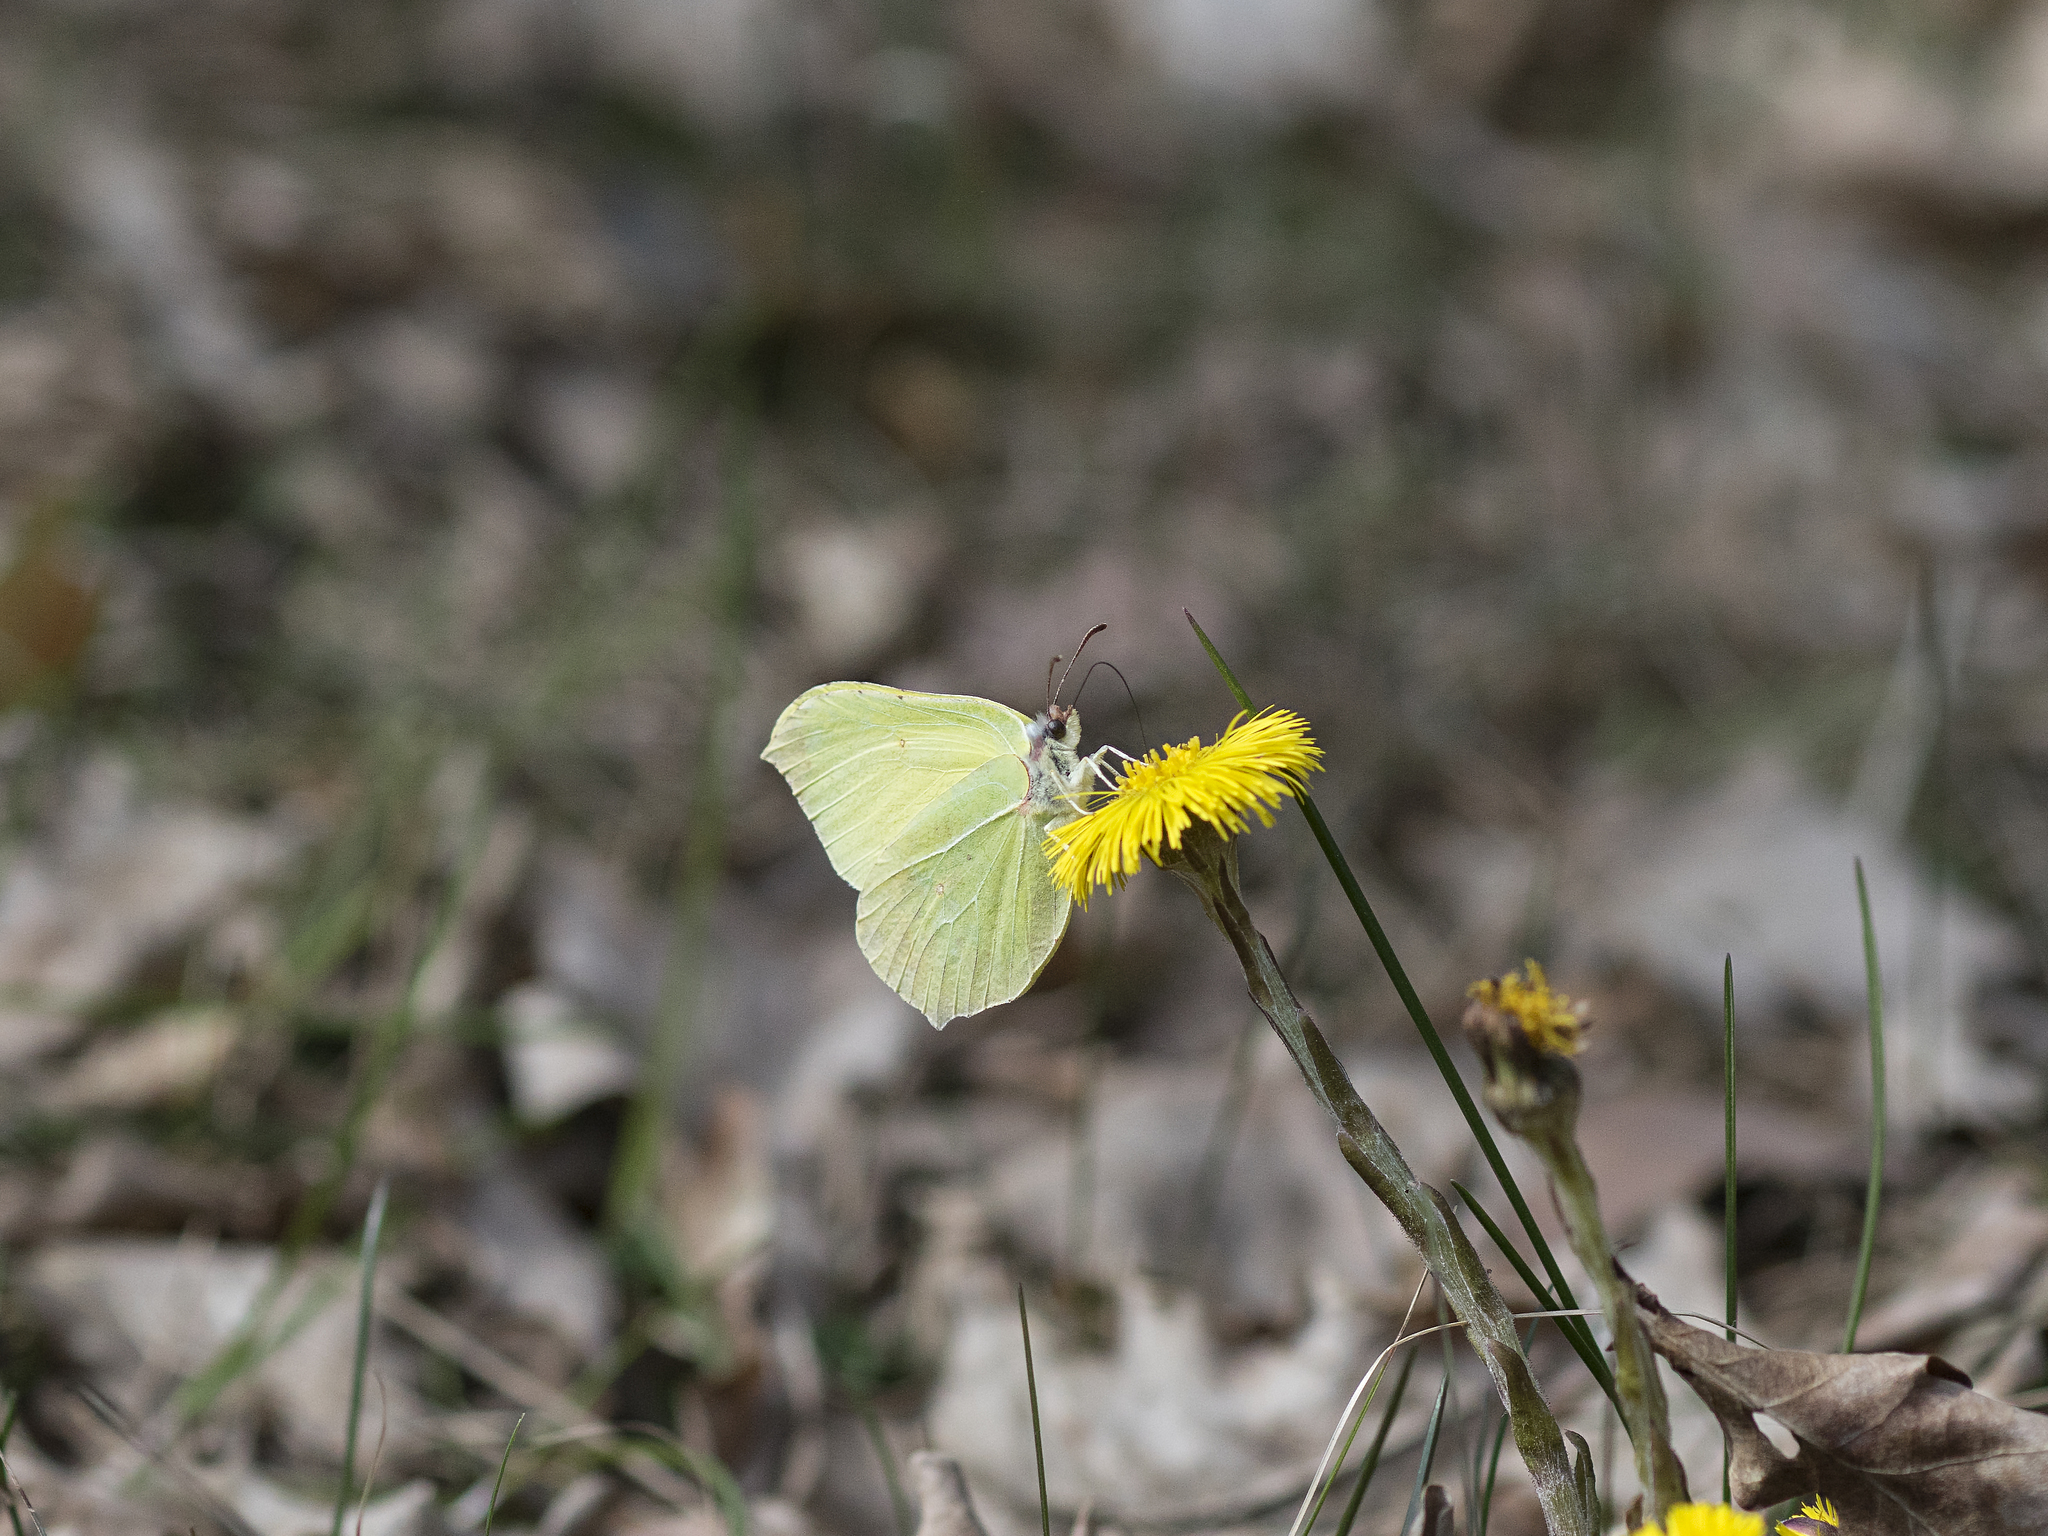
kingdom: Animalia
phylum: Arthropoda
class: Insecta
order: Lepidoptera
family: Pieridae
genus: Gonepteryx
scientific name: Gonepteryx rhamni
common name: Brimstone
